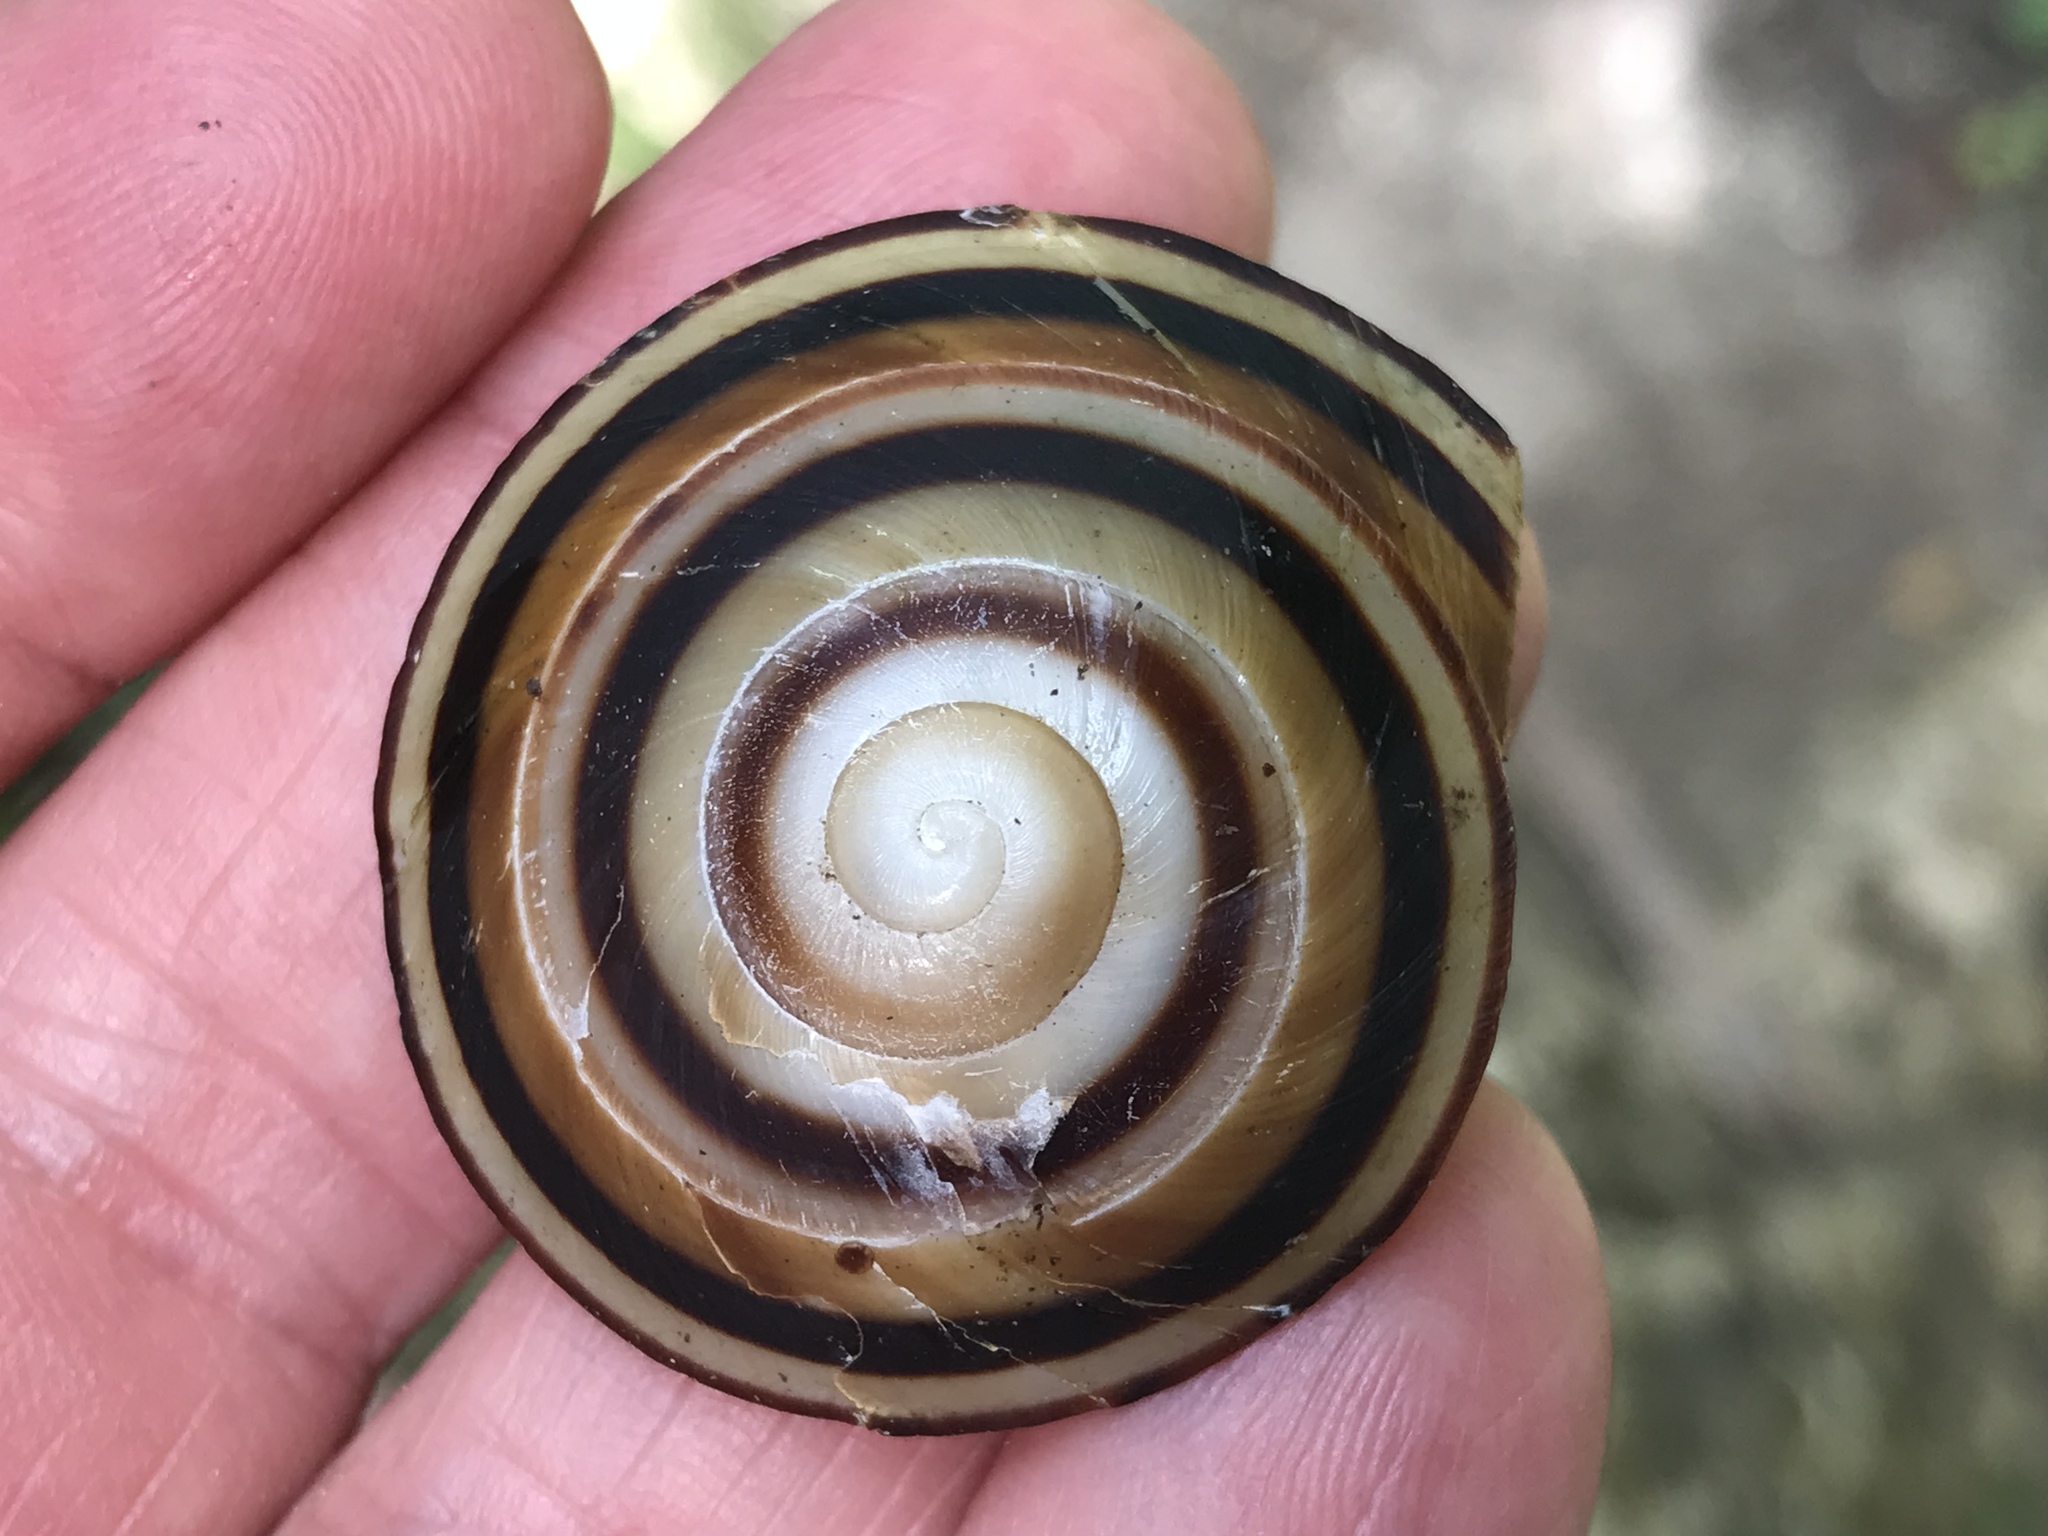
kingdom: Animalia
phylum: Mollusca
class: Gastropoda
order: Stylommatophora
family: Solaropsidae
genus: Caracolus
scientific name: Caracolus sagemon
